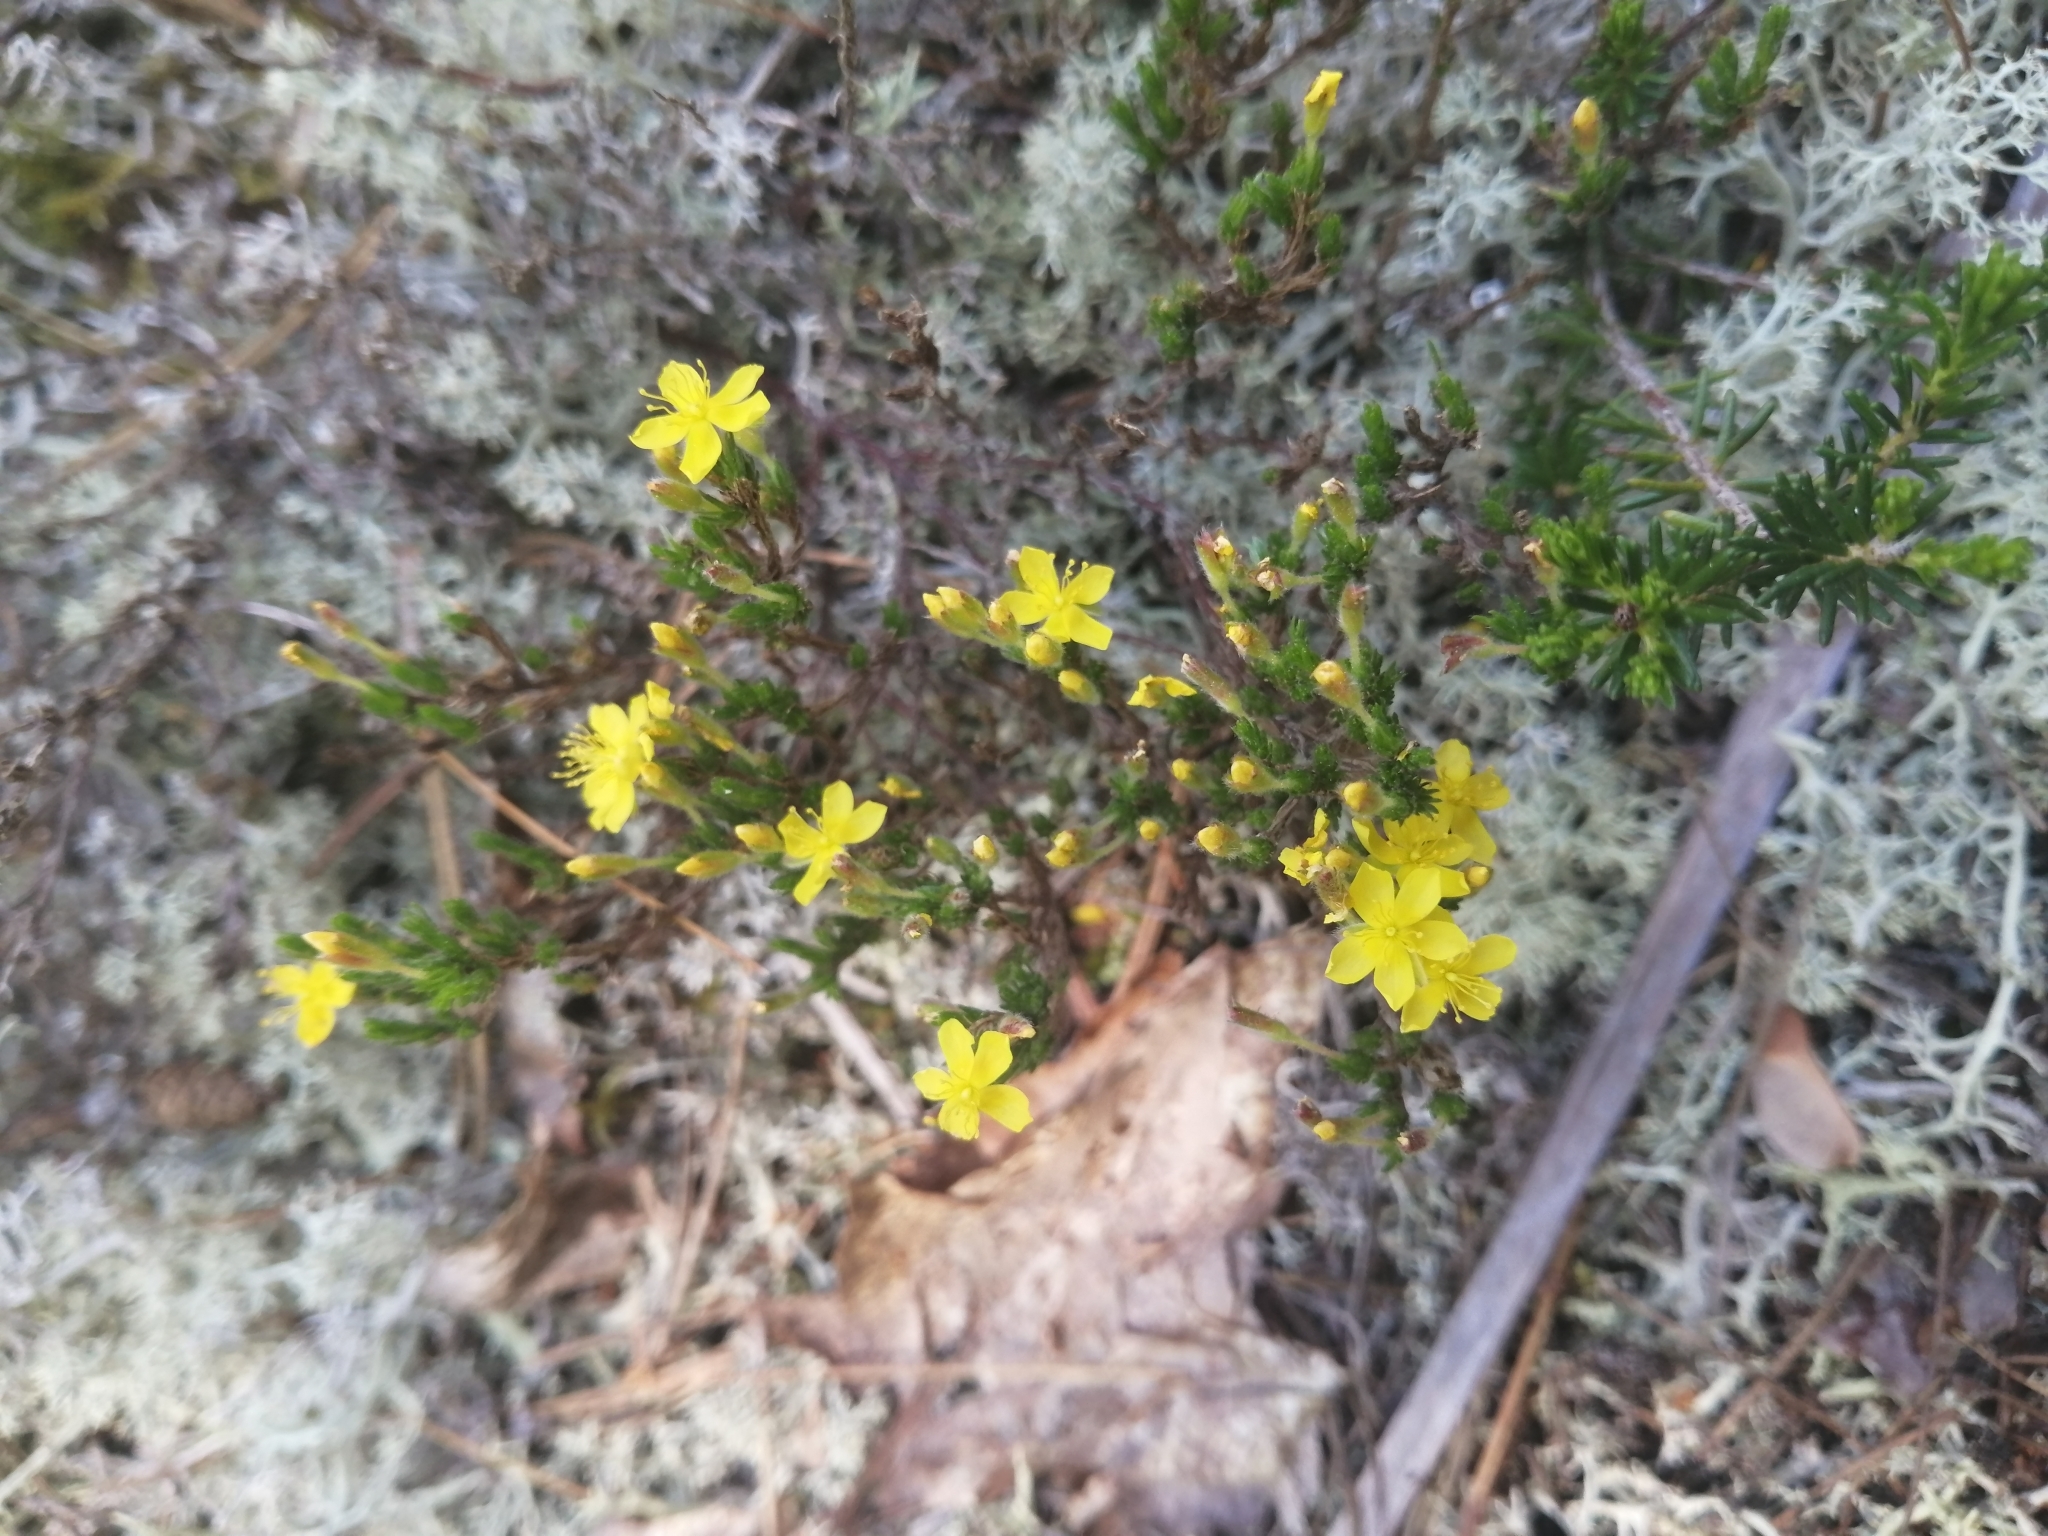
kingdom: Plantae
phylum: Tracheophyta
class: Magnoliopsida
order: Malvales
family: Cistaceae
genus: Hudsonia
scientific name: Hudsonia ericoides
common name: Golden-heather
